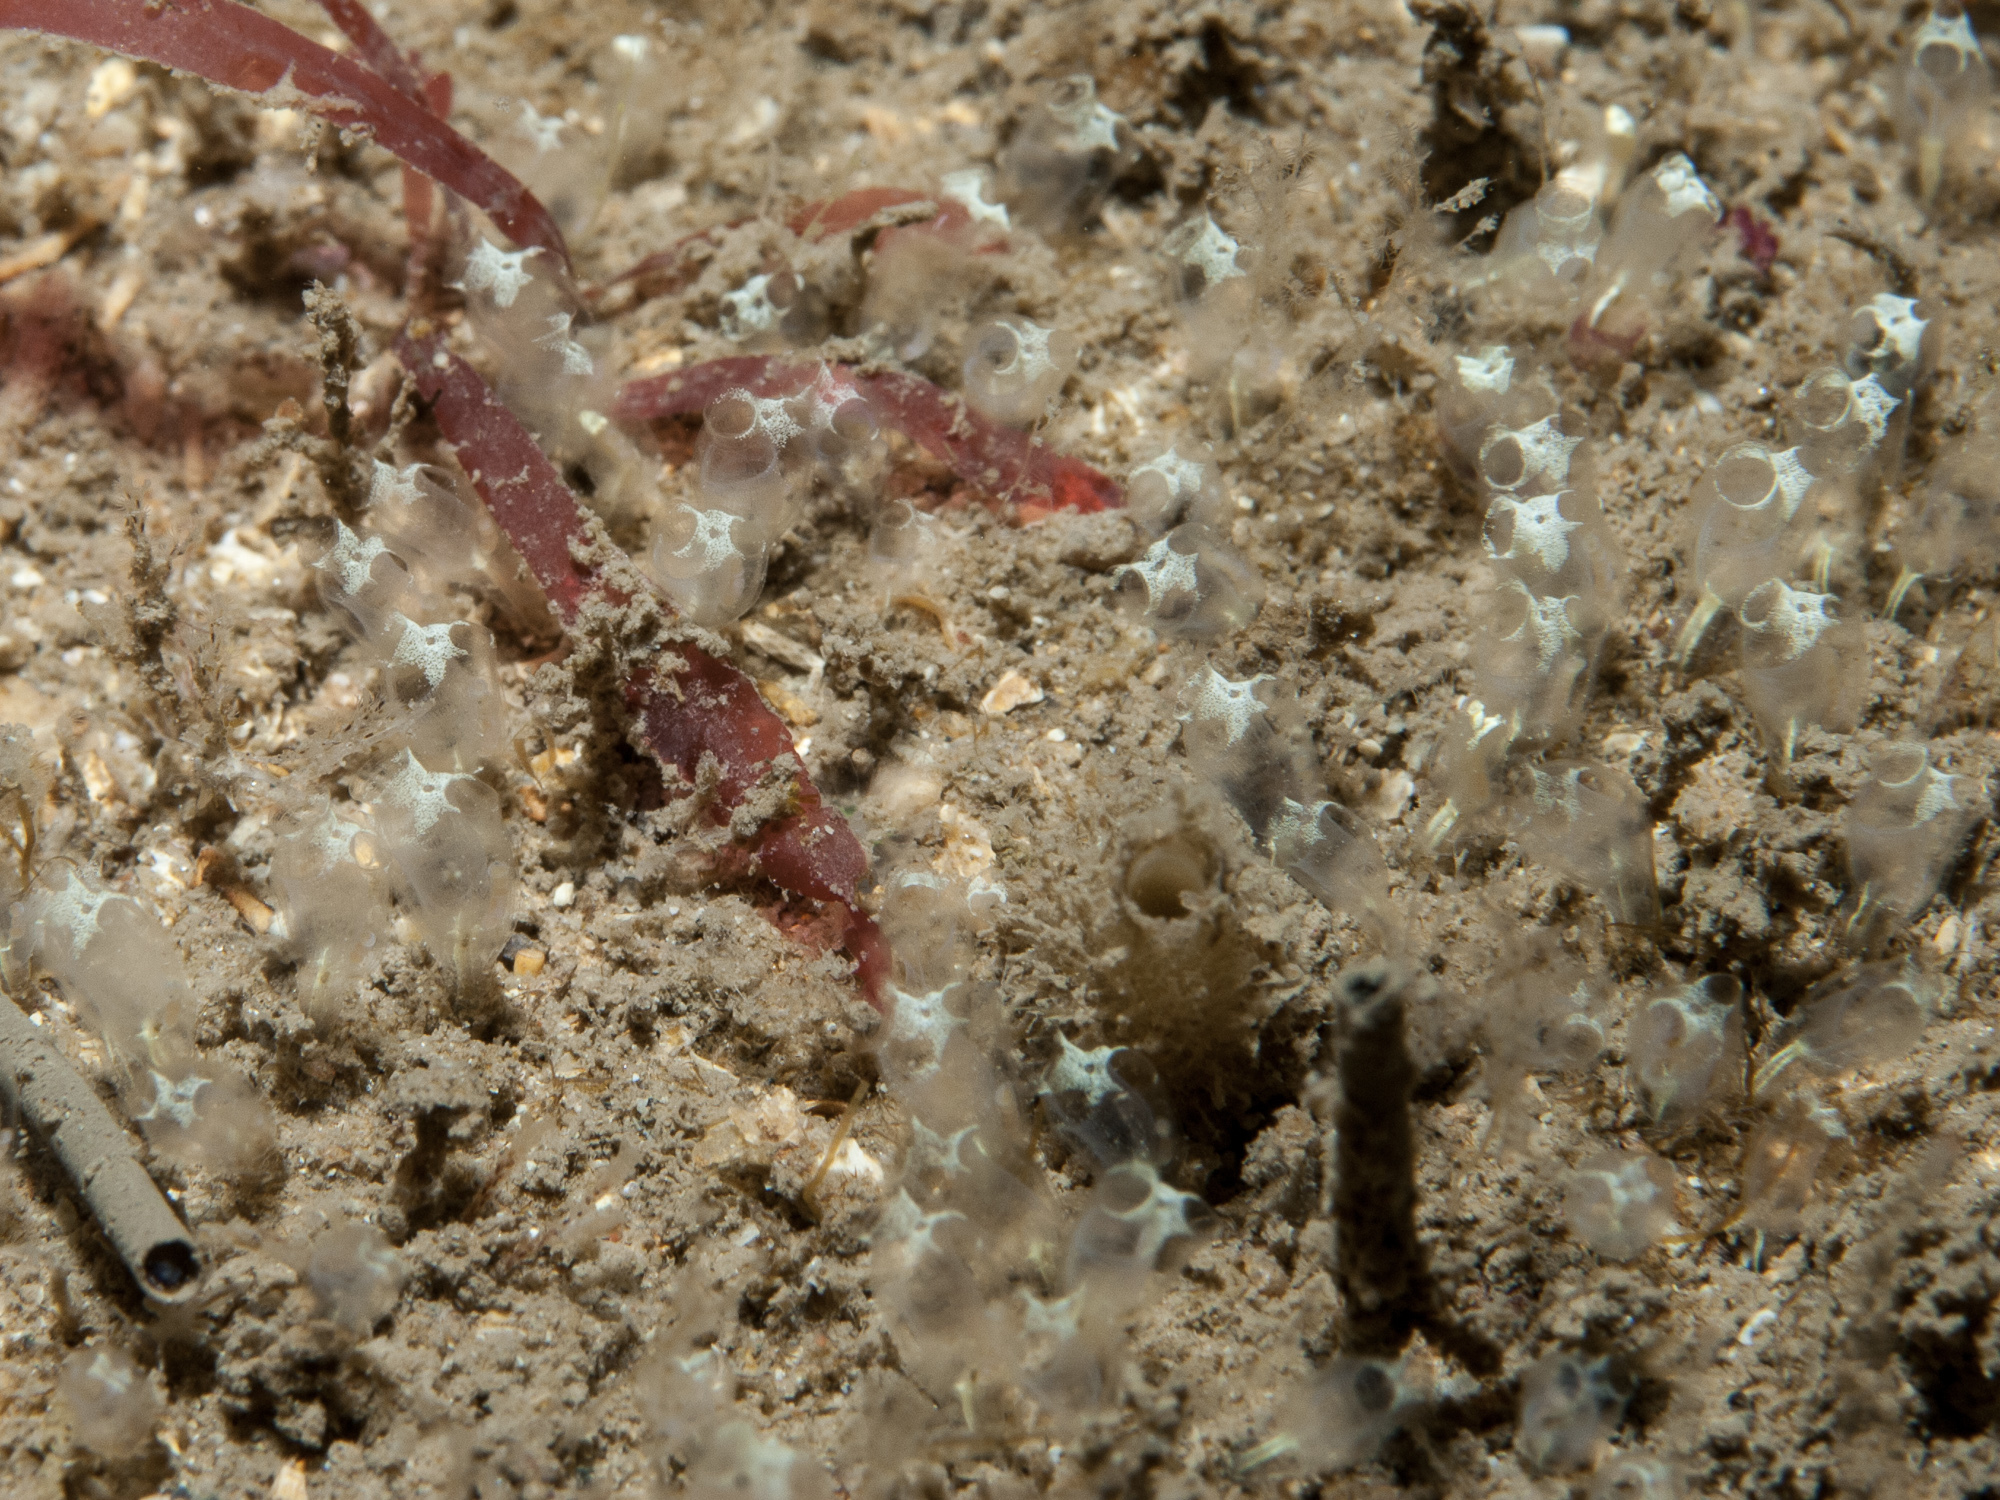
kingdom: Animalia
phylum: Chordata
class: Ascidiacea
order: Aplousobranchia
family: Clavelinidae
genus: Pycnoclavella
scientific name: Pycnoclavella stolonialis
